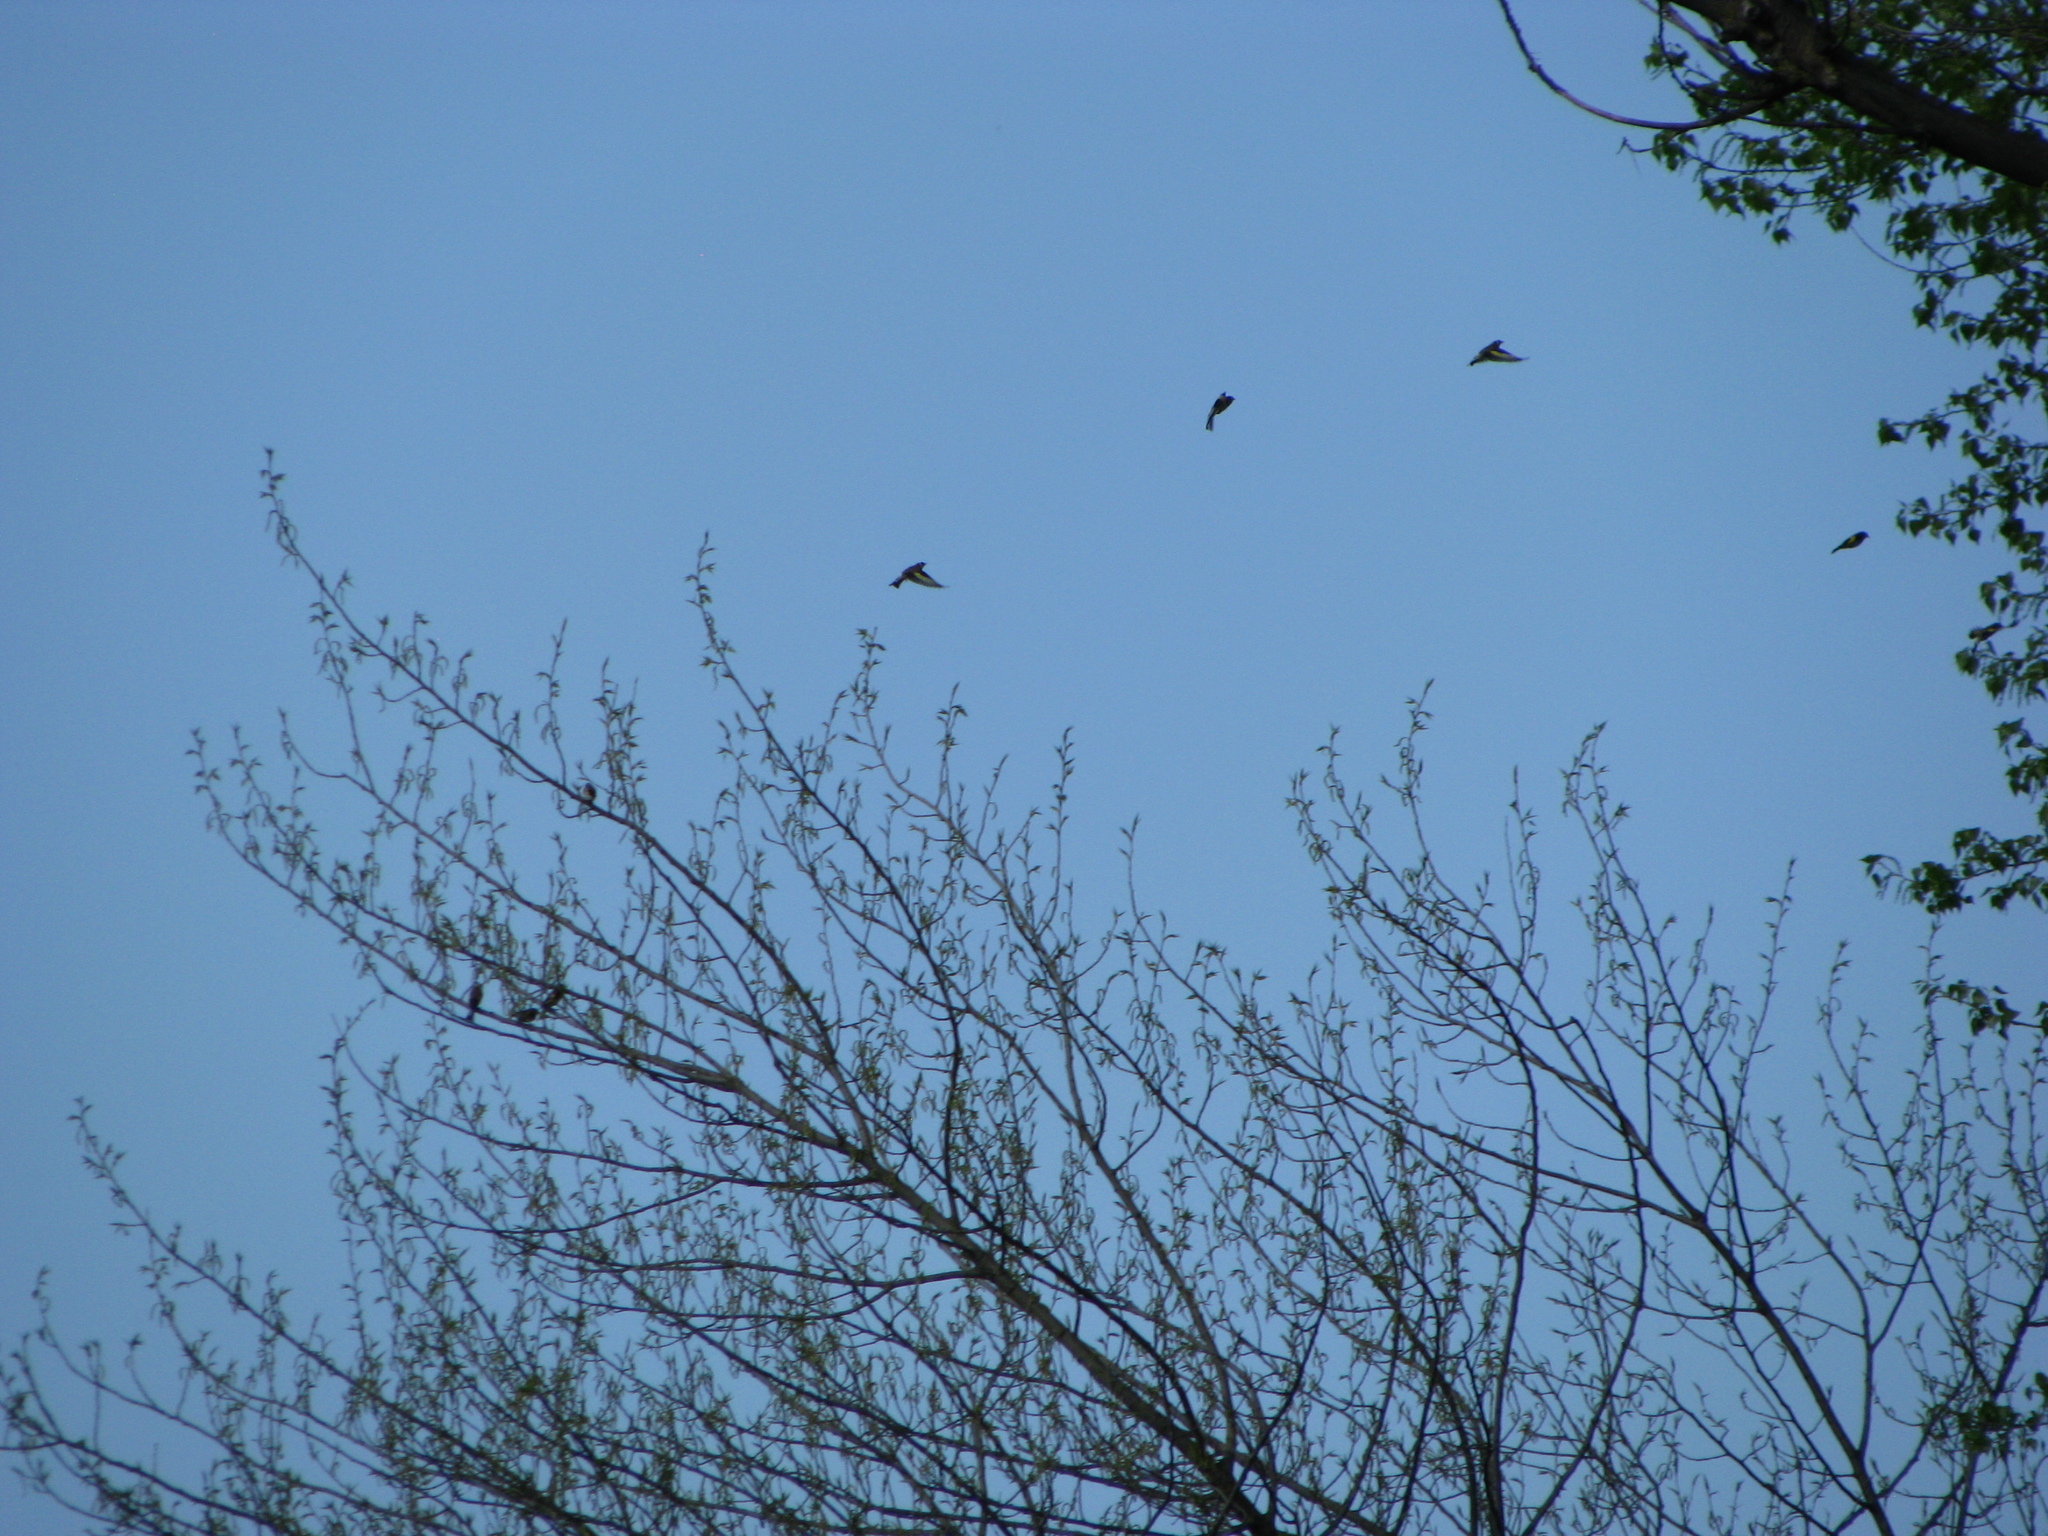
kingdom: Animalia
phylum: Chordata
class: Aves
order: Passeriformes
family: Fringillidae
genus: Carduelis
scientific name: Carduelis carduelis
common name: European goldfinch
